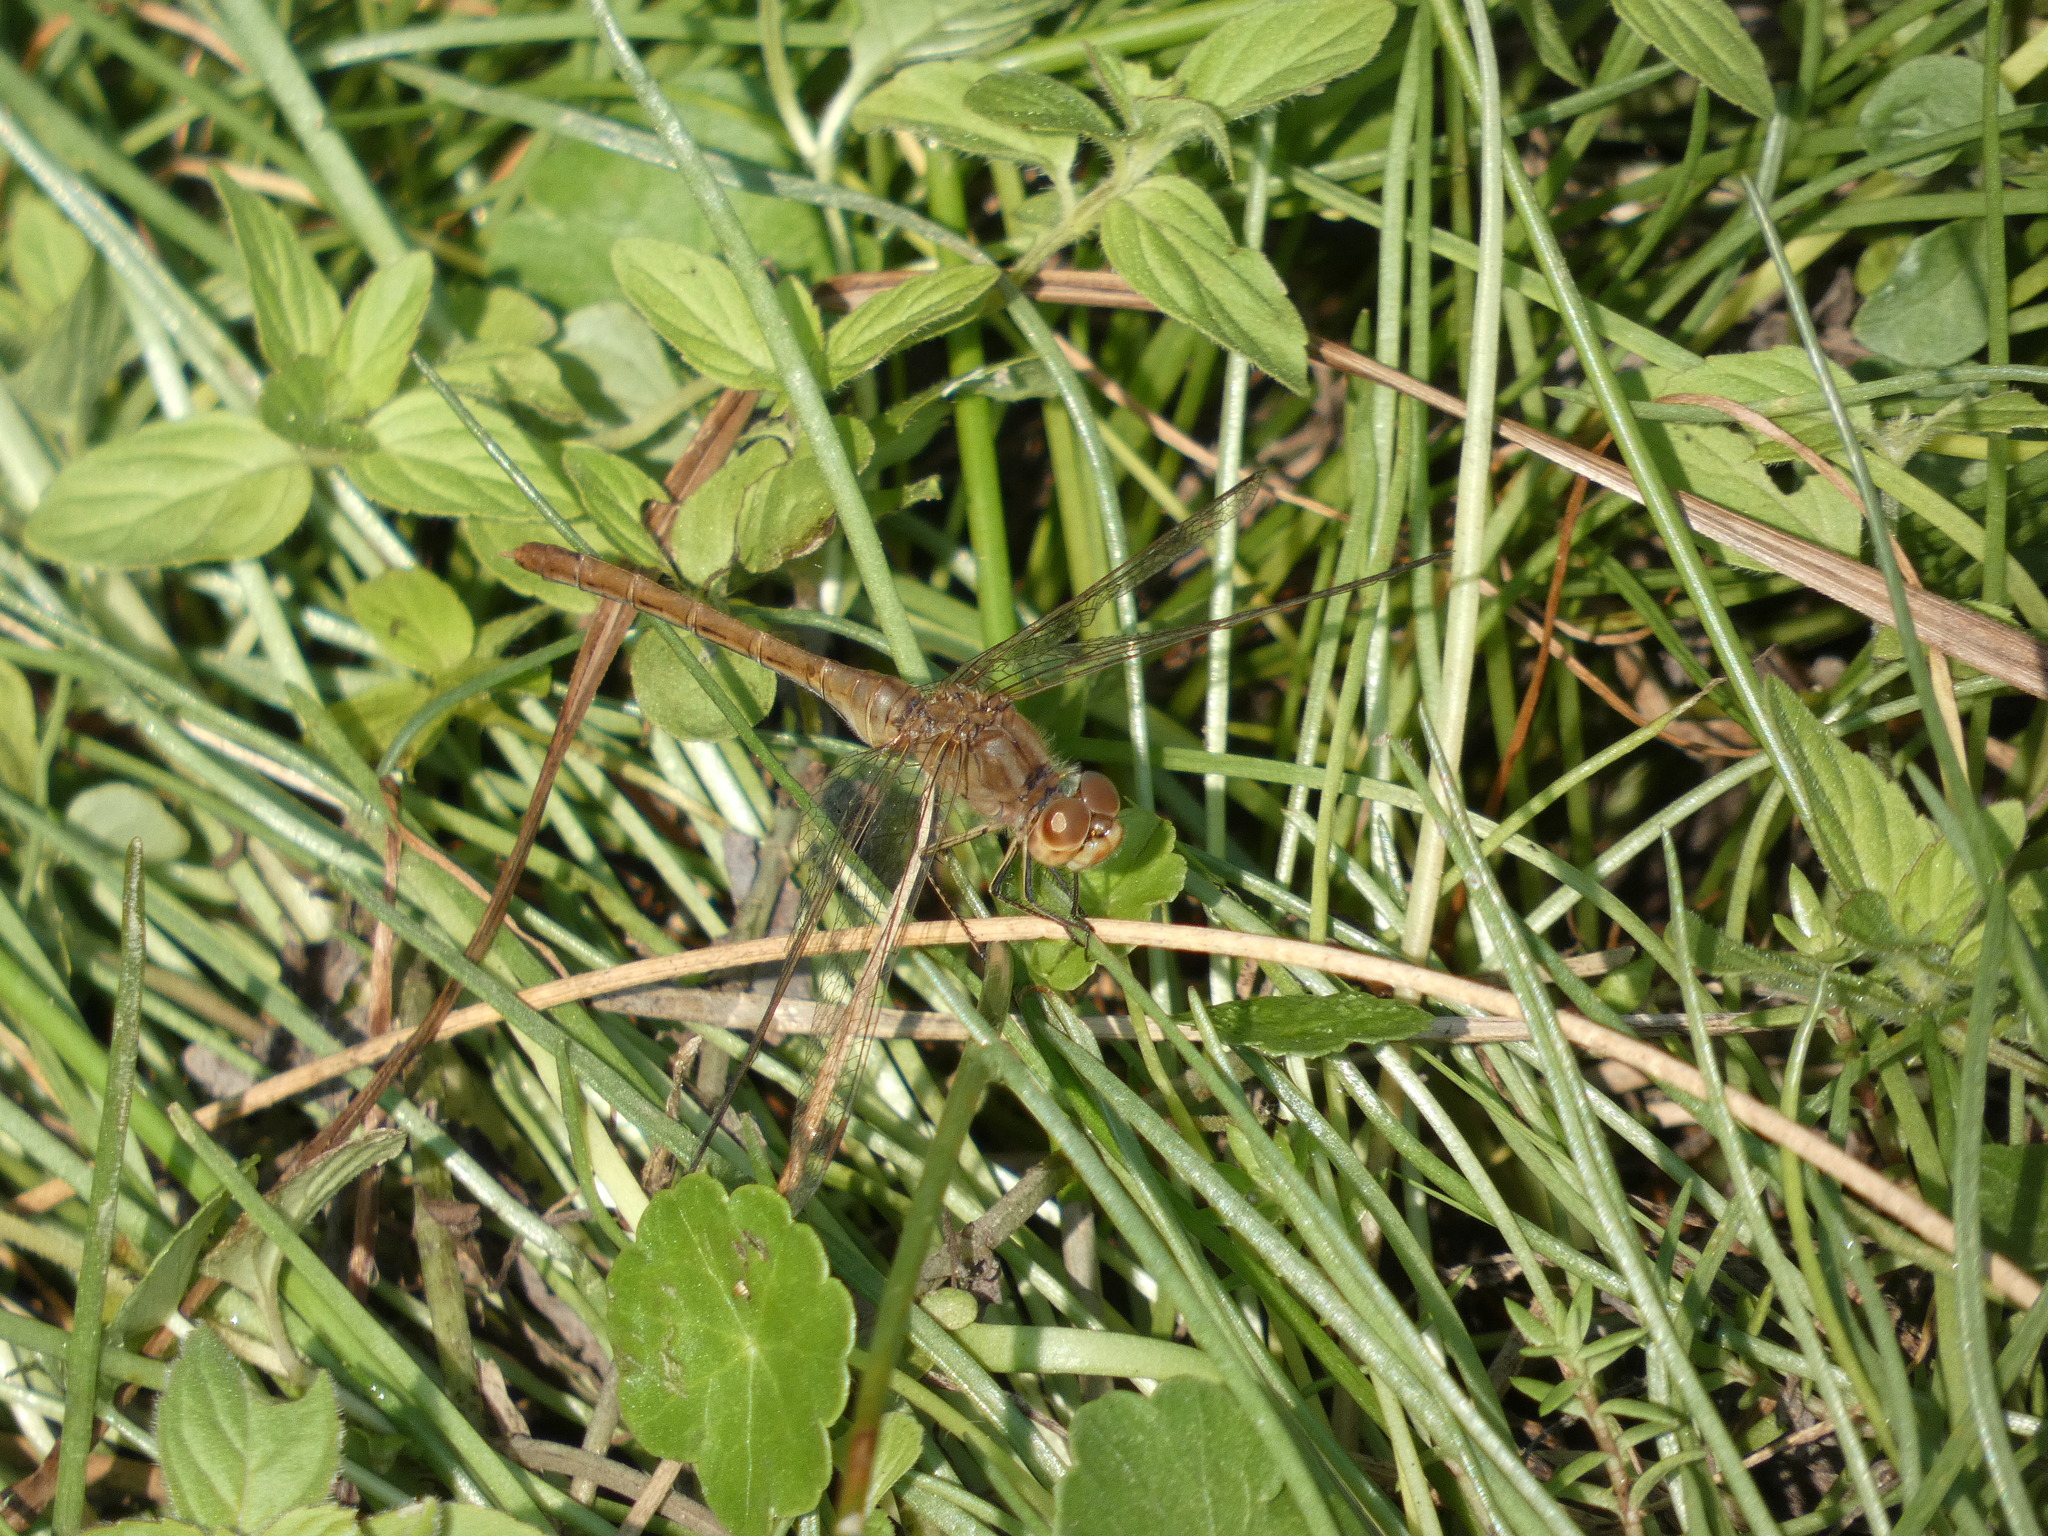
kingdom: Animalia
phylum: Arthropoda
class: Insecta
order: Odonata
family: Libellulidae
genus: Sympetrum
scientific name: Sympetrum meridionale
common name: Southern darter
